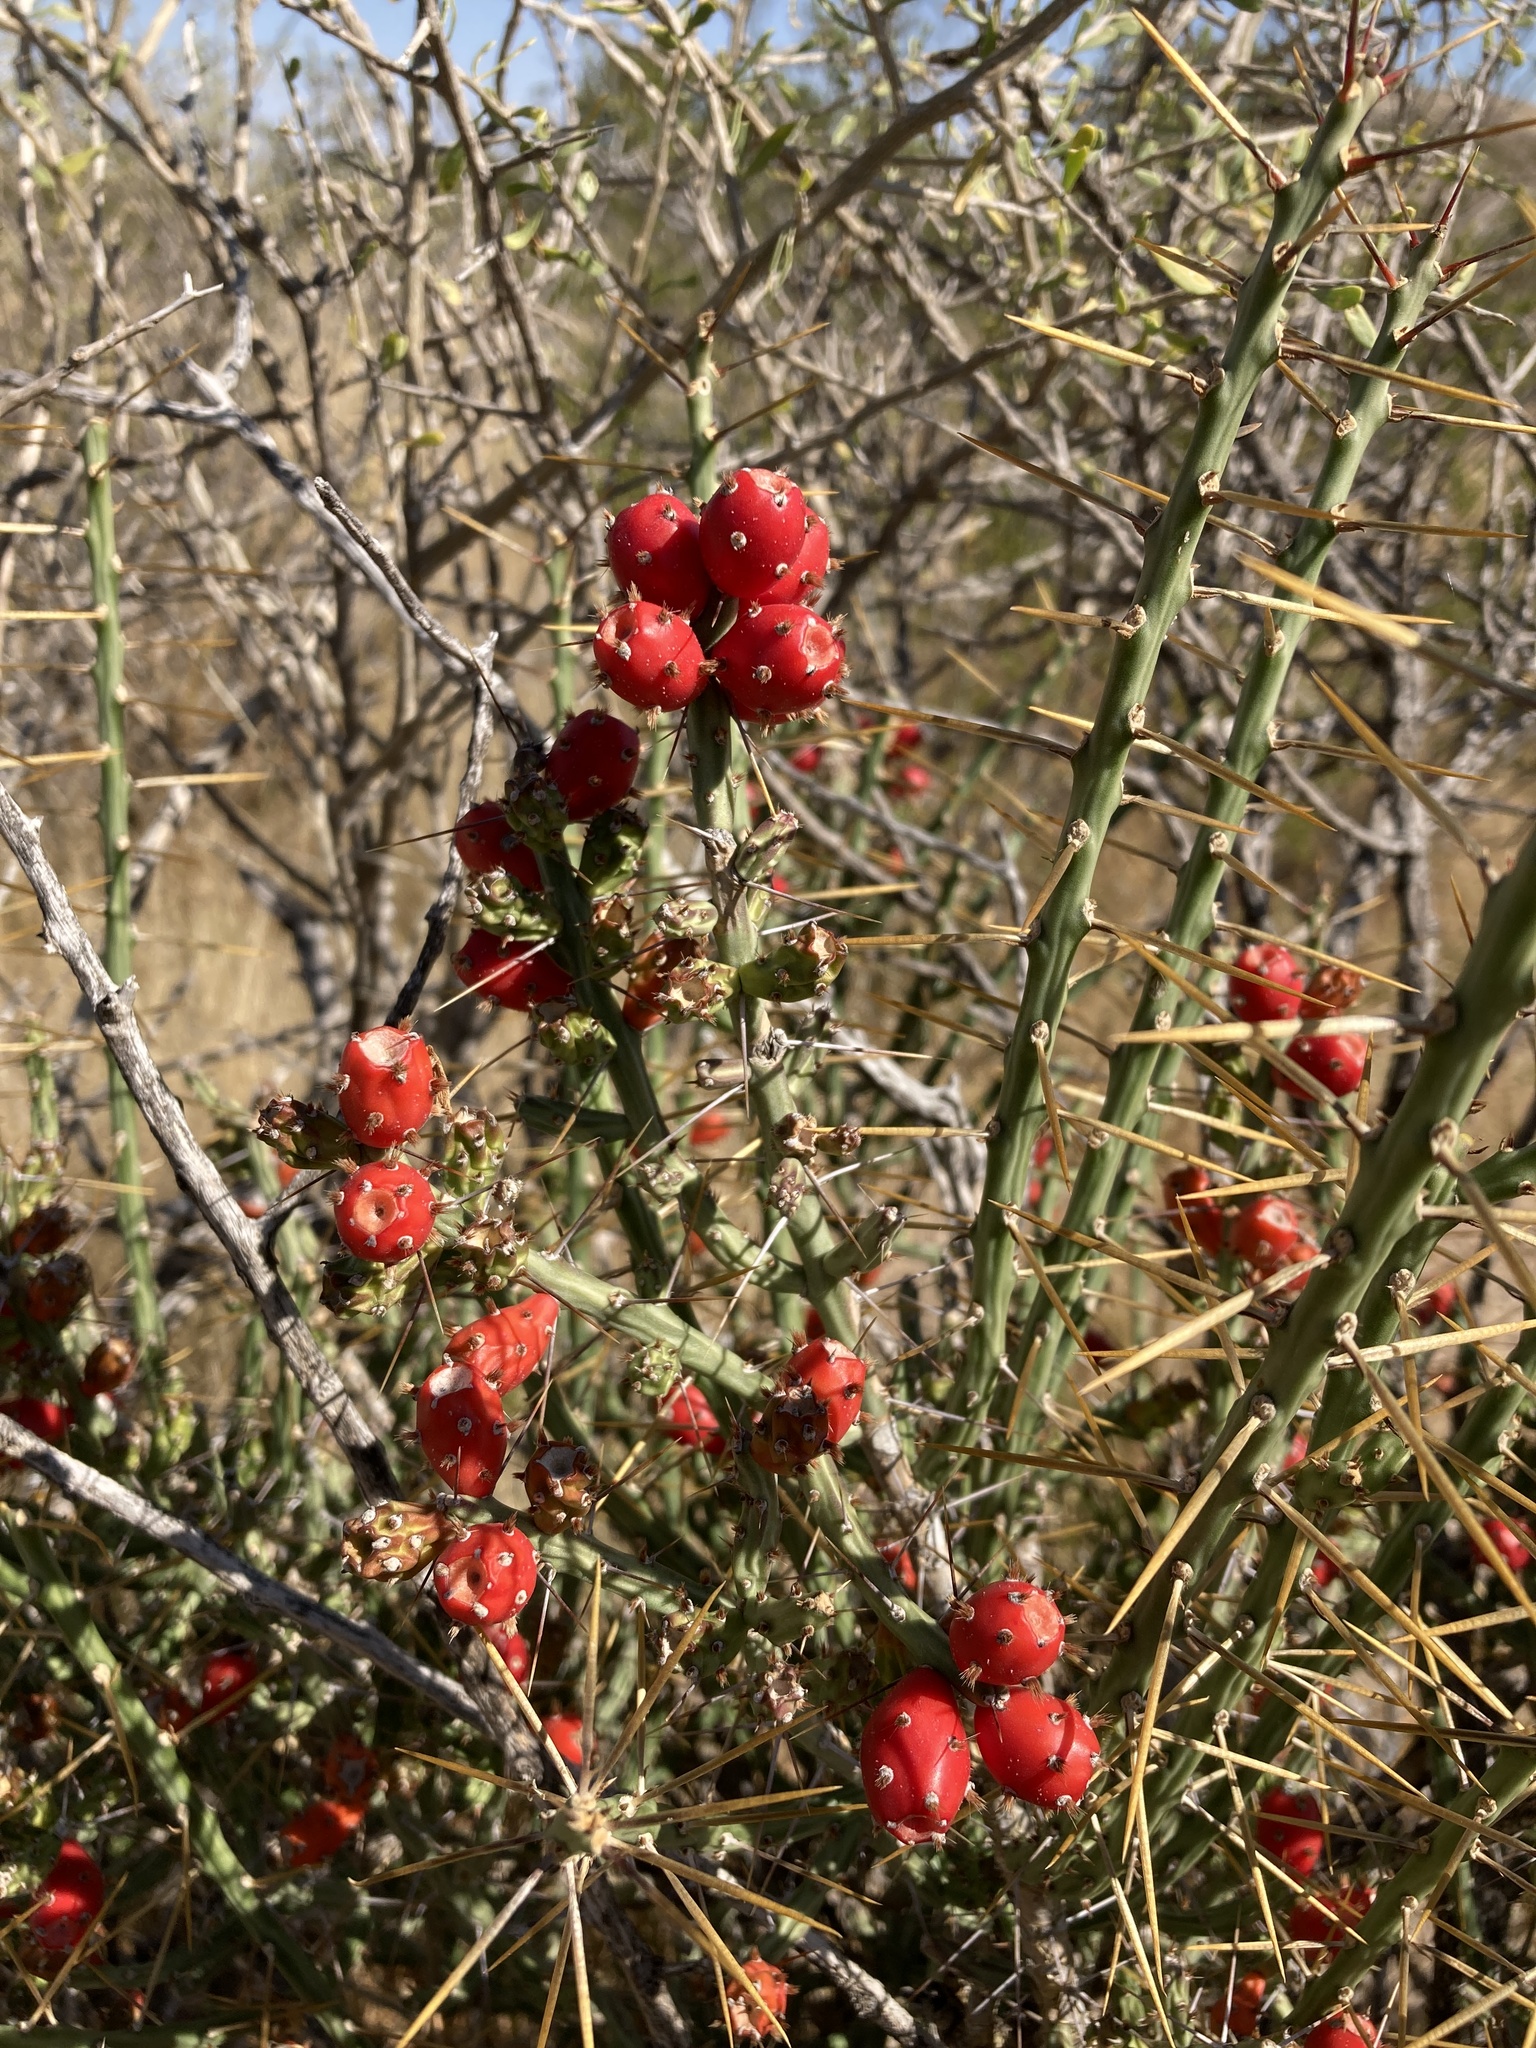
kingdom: Plantae
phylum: Tracheophyta
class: Magnoliopsida
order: Caryophyllales
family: Cactaceae
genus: Cylindropuntia
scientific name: Cylindropuntia leptocaulis
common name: Christmas cactus
